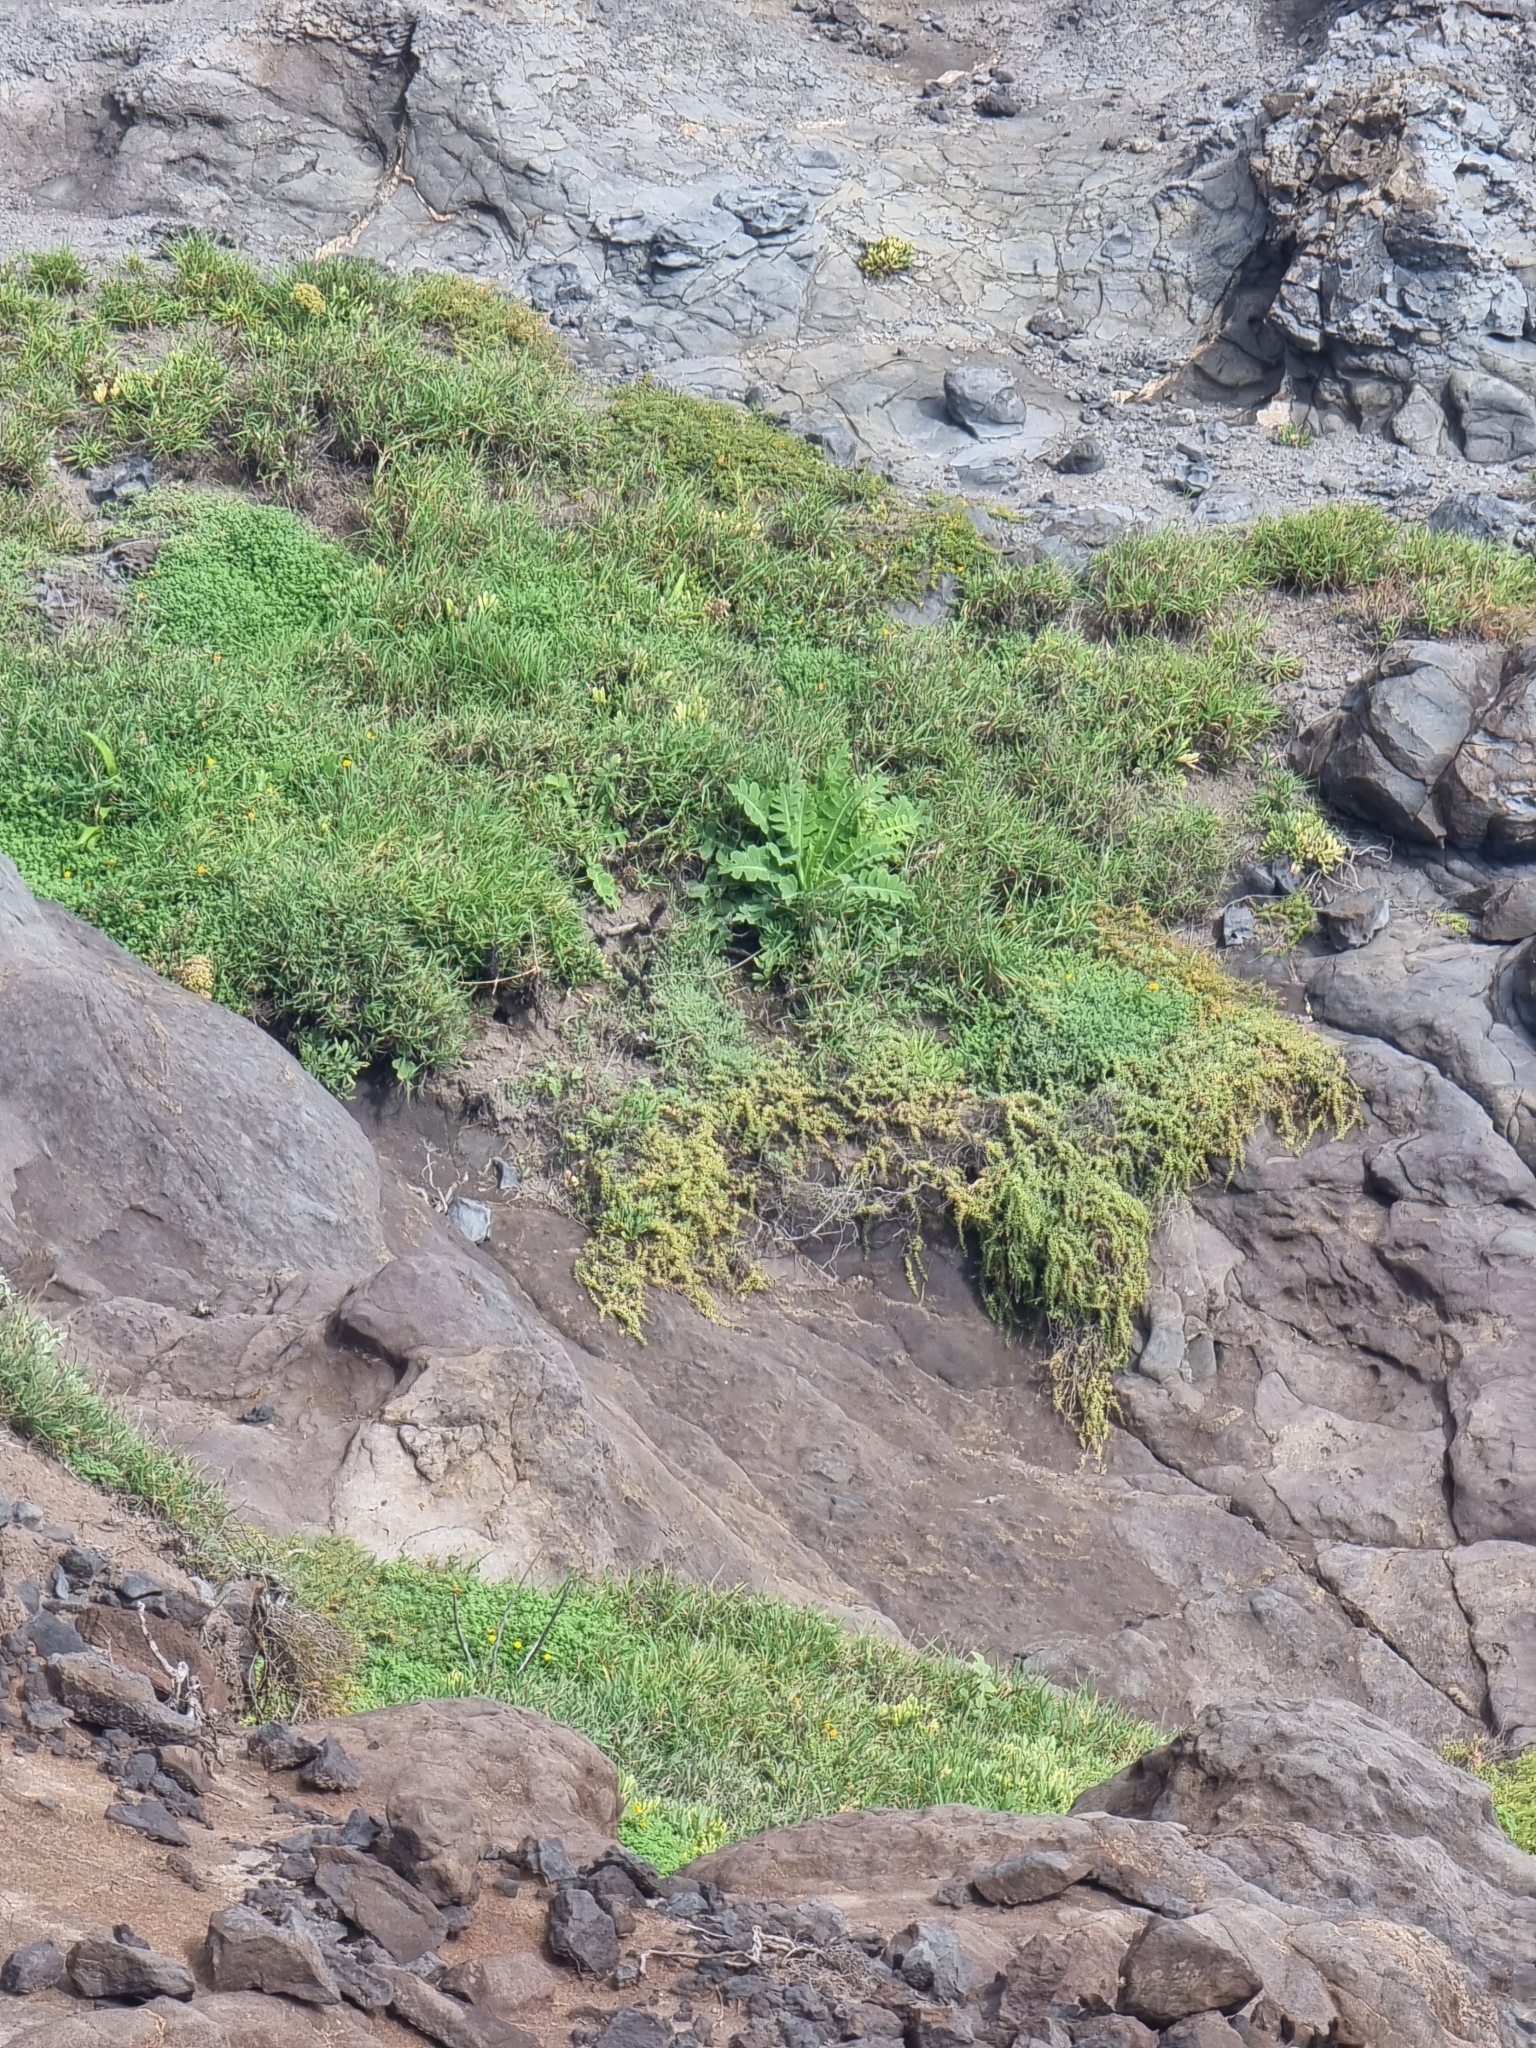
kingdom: Plantae
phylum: Tracheophyta
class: Magnoliopsida
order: Asterales
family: Asteraceae
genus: Sonchus
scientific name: Sonchus latifolius
